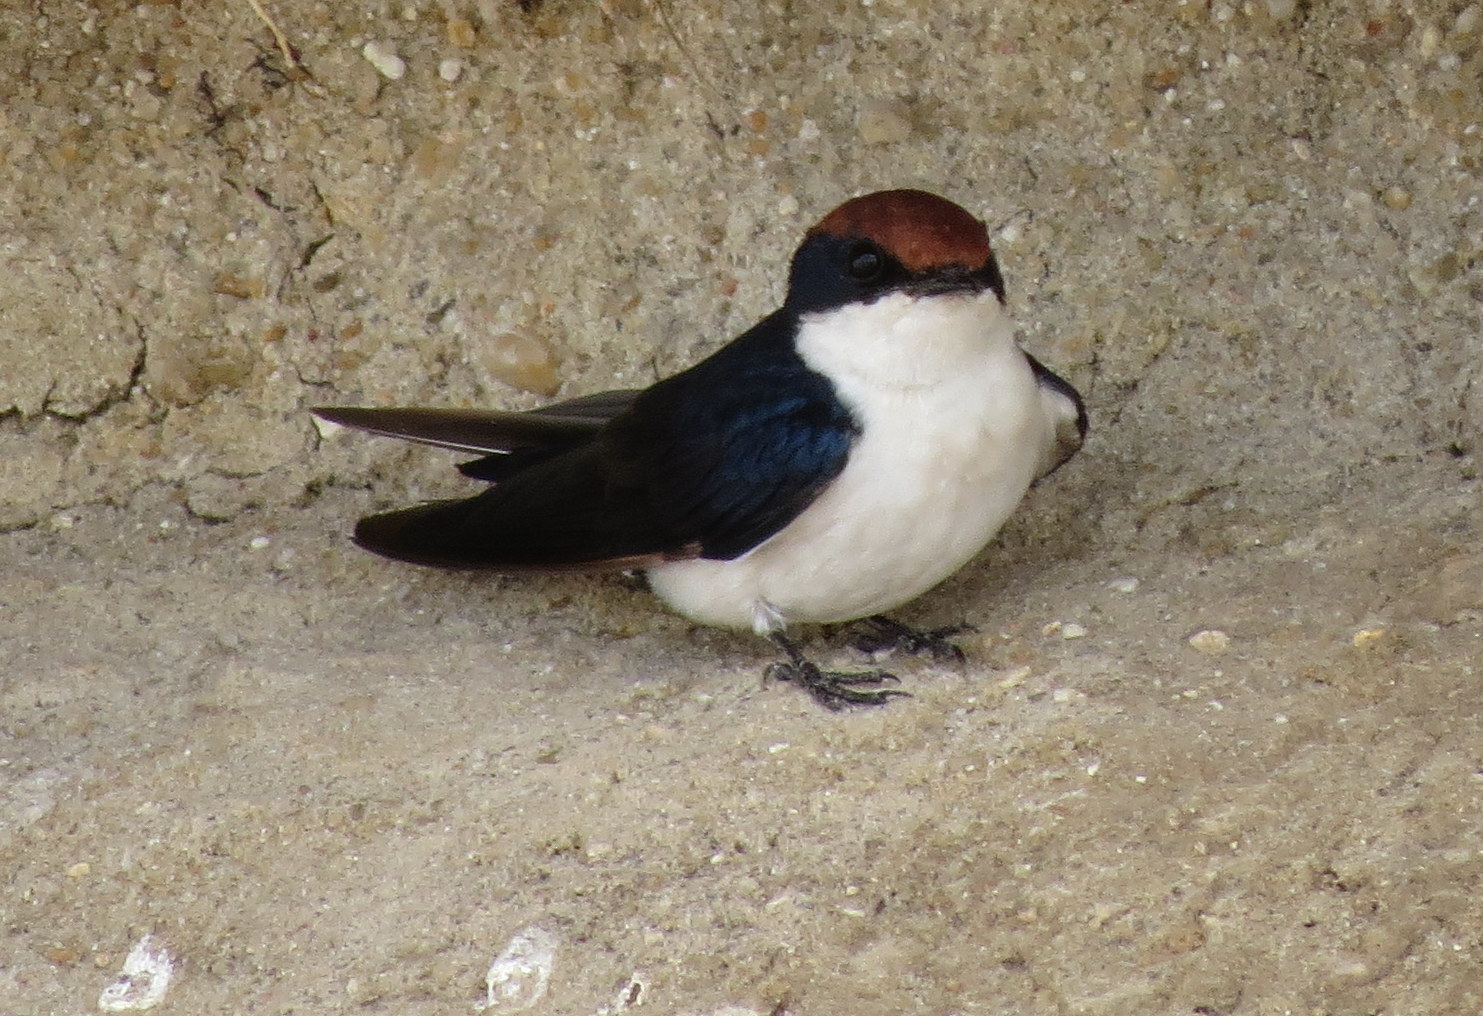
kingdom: Animalia
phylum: Chordata
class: Aves
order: Passeriformes
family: Hirundinidae
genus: Hirundo
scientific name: Hirundo smithii
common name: Wire-tailed swallow
